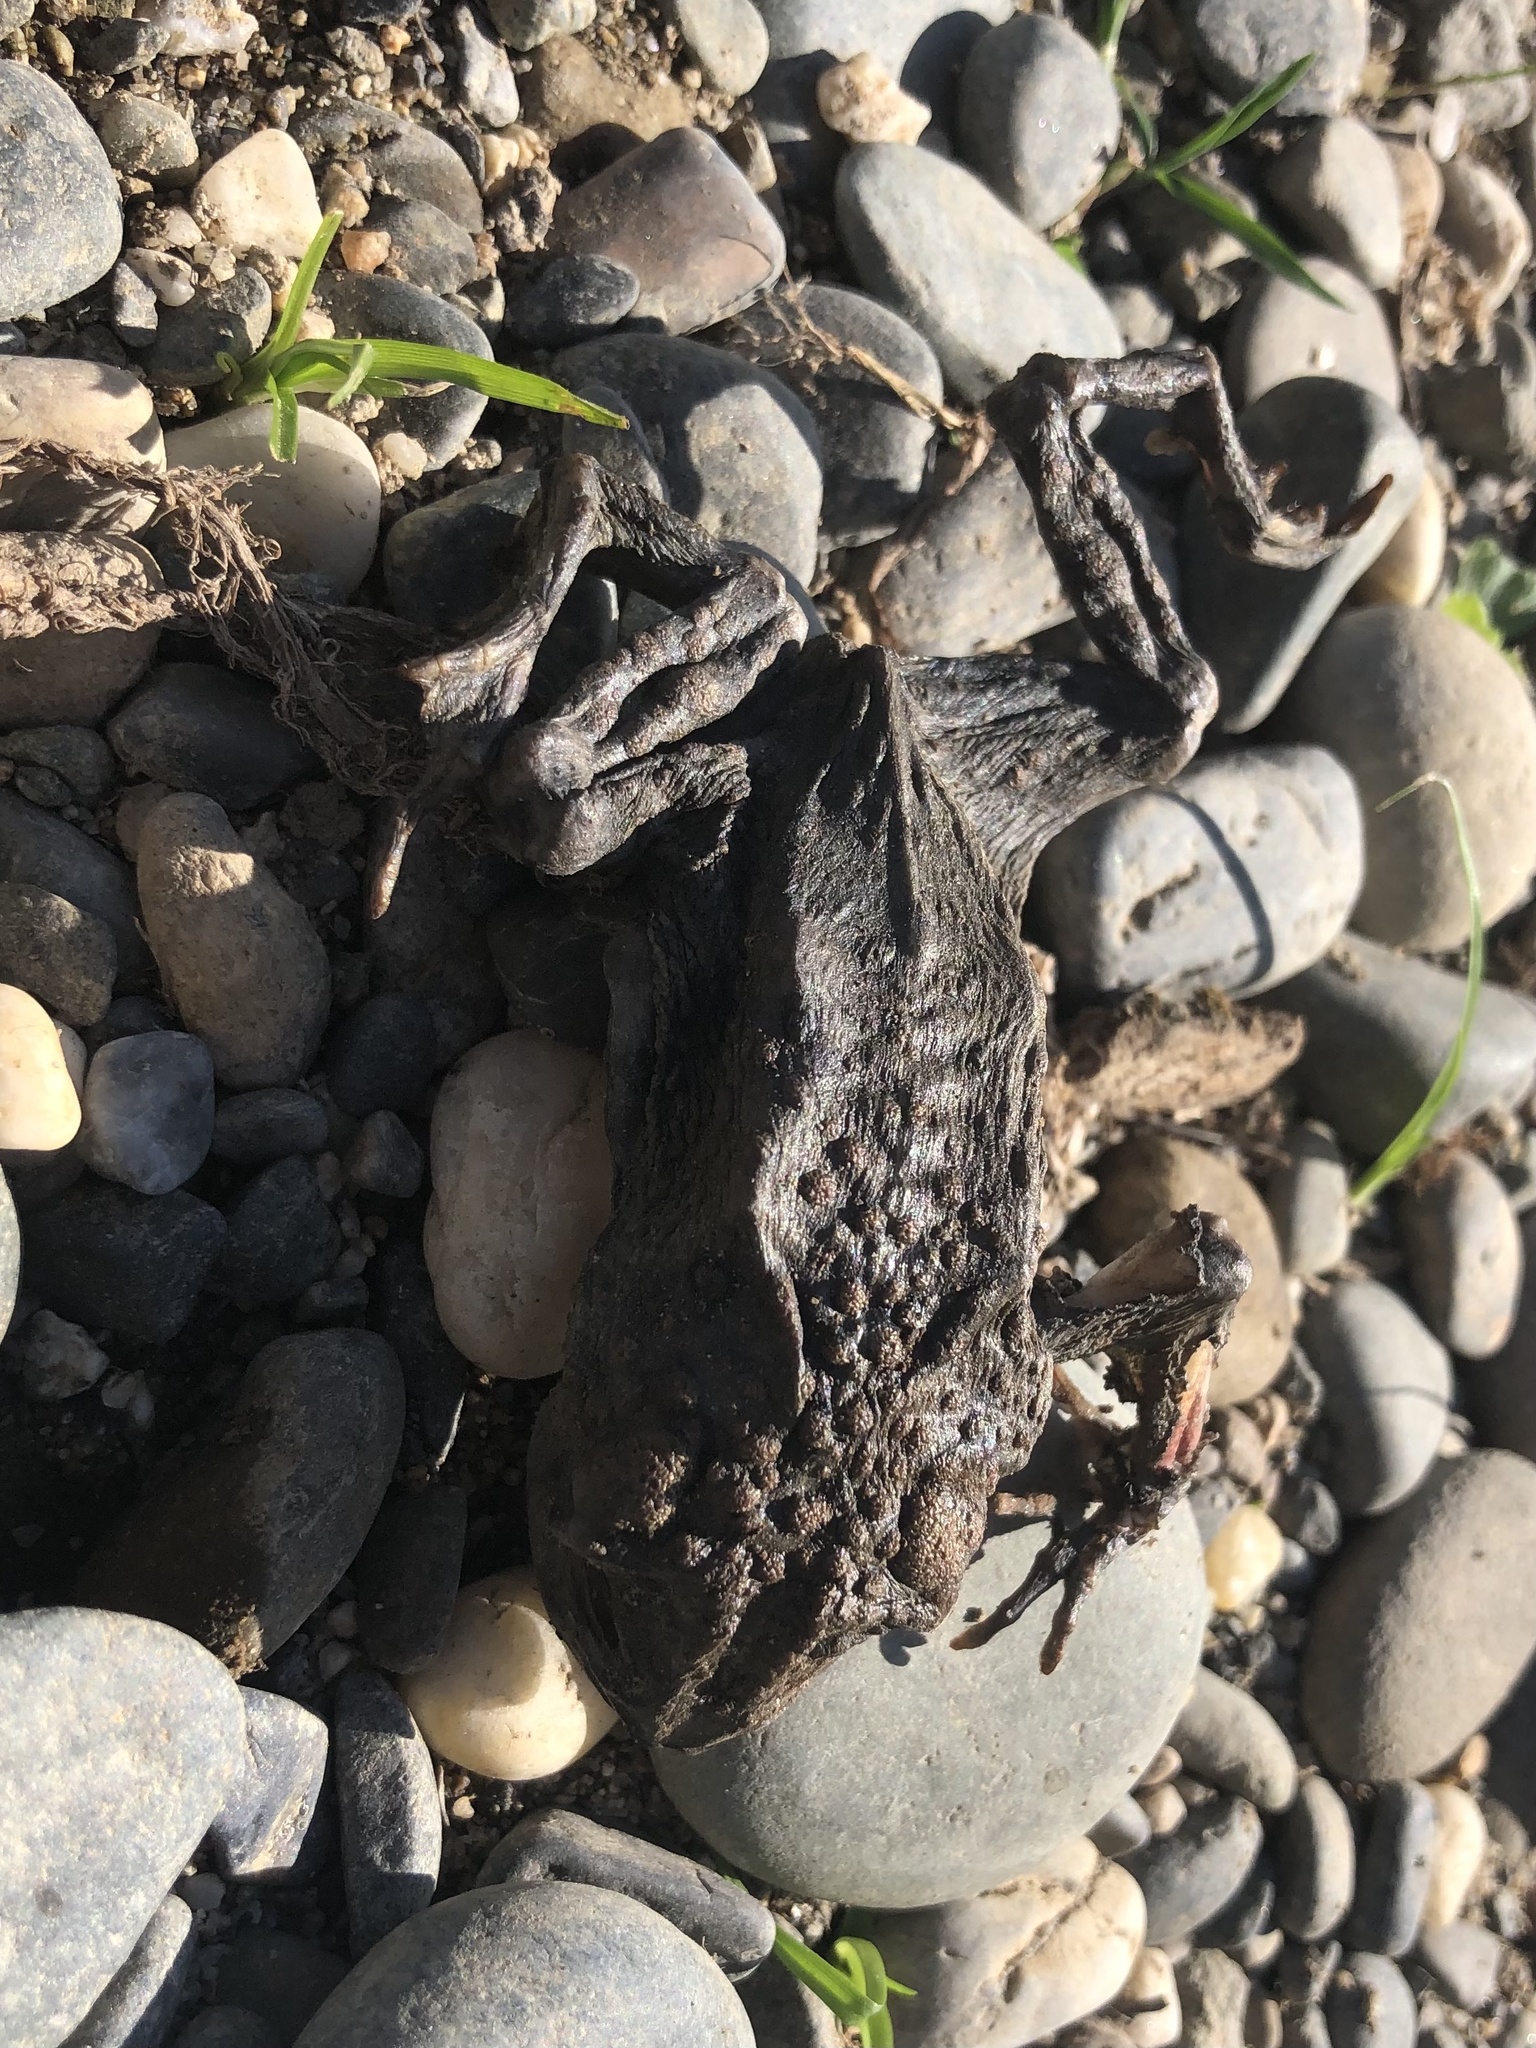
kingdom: Animalia
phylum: Chordata
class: Amphibia
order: Anura
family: Bufonidae
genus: Anaxyrus
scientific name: Anaxyrus boreas
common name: Western toad
